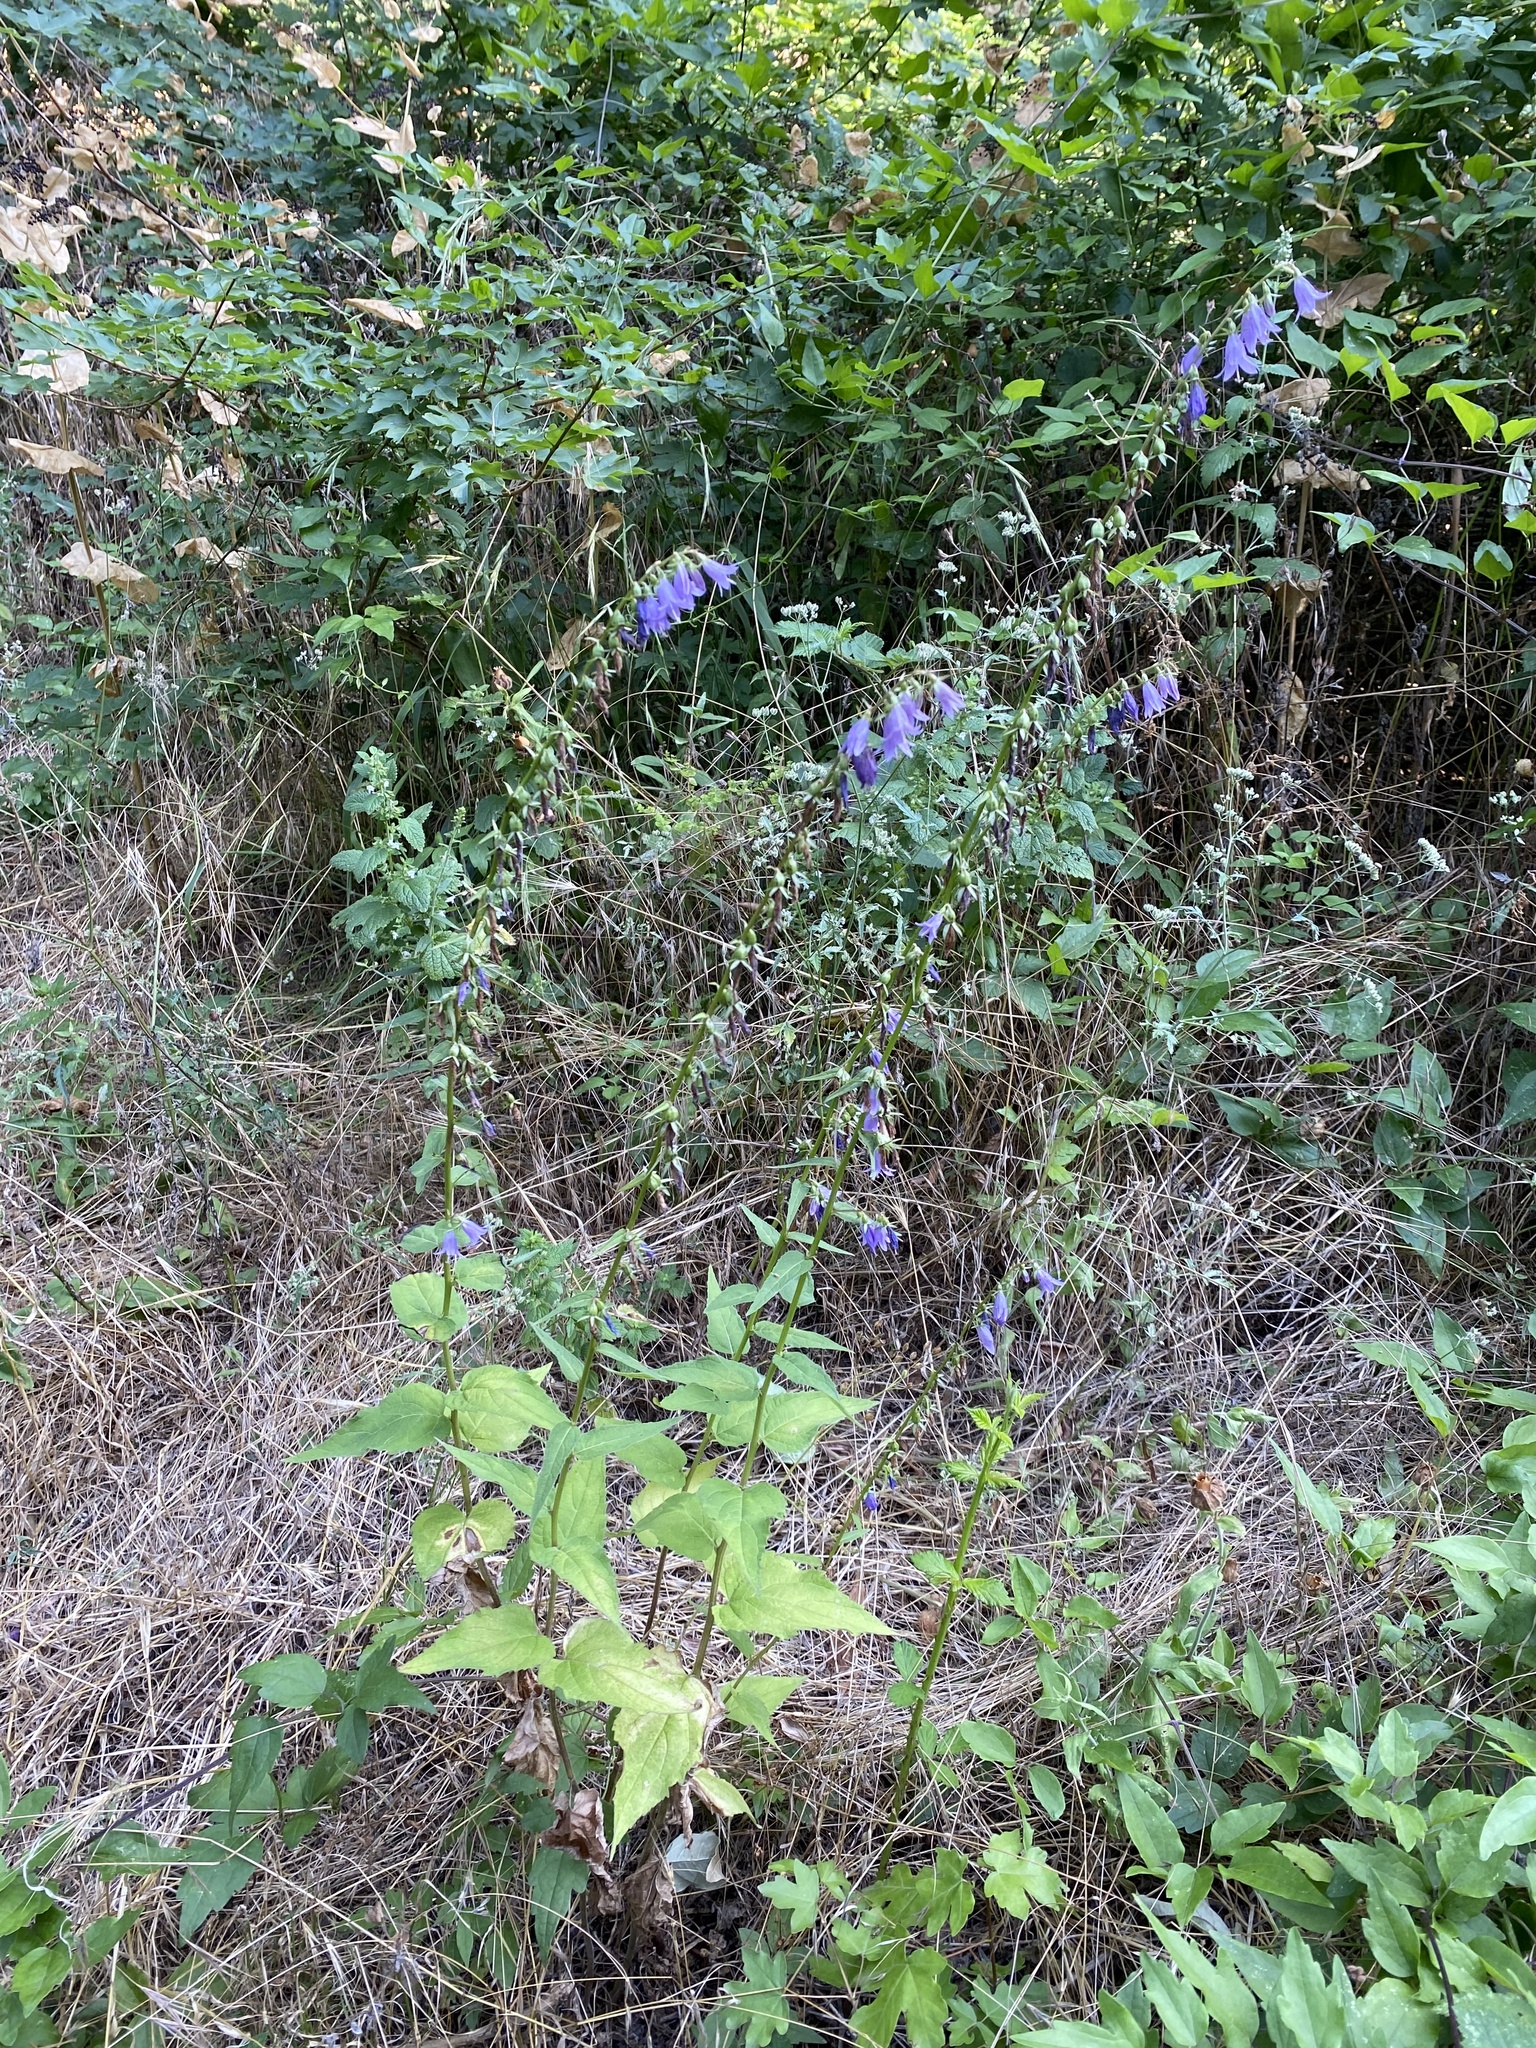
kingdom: Plantae
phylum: Tracheophyta
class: Magnoliopsida
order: Asterales
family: Campanulaceae
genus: Campanula
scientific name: Campanula rapunculoides
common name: Creeping bellflower
